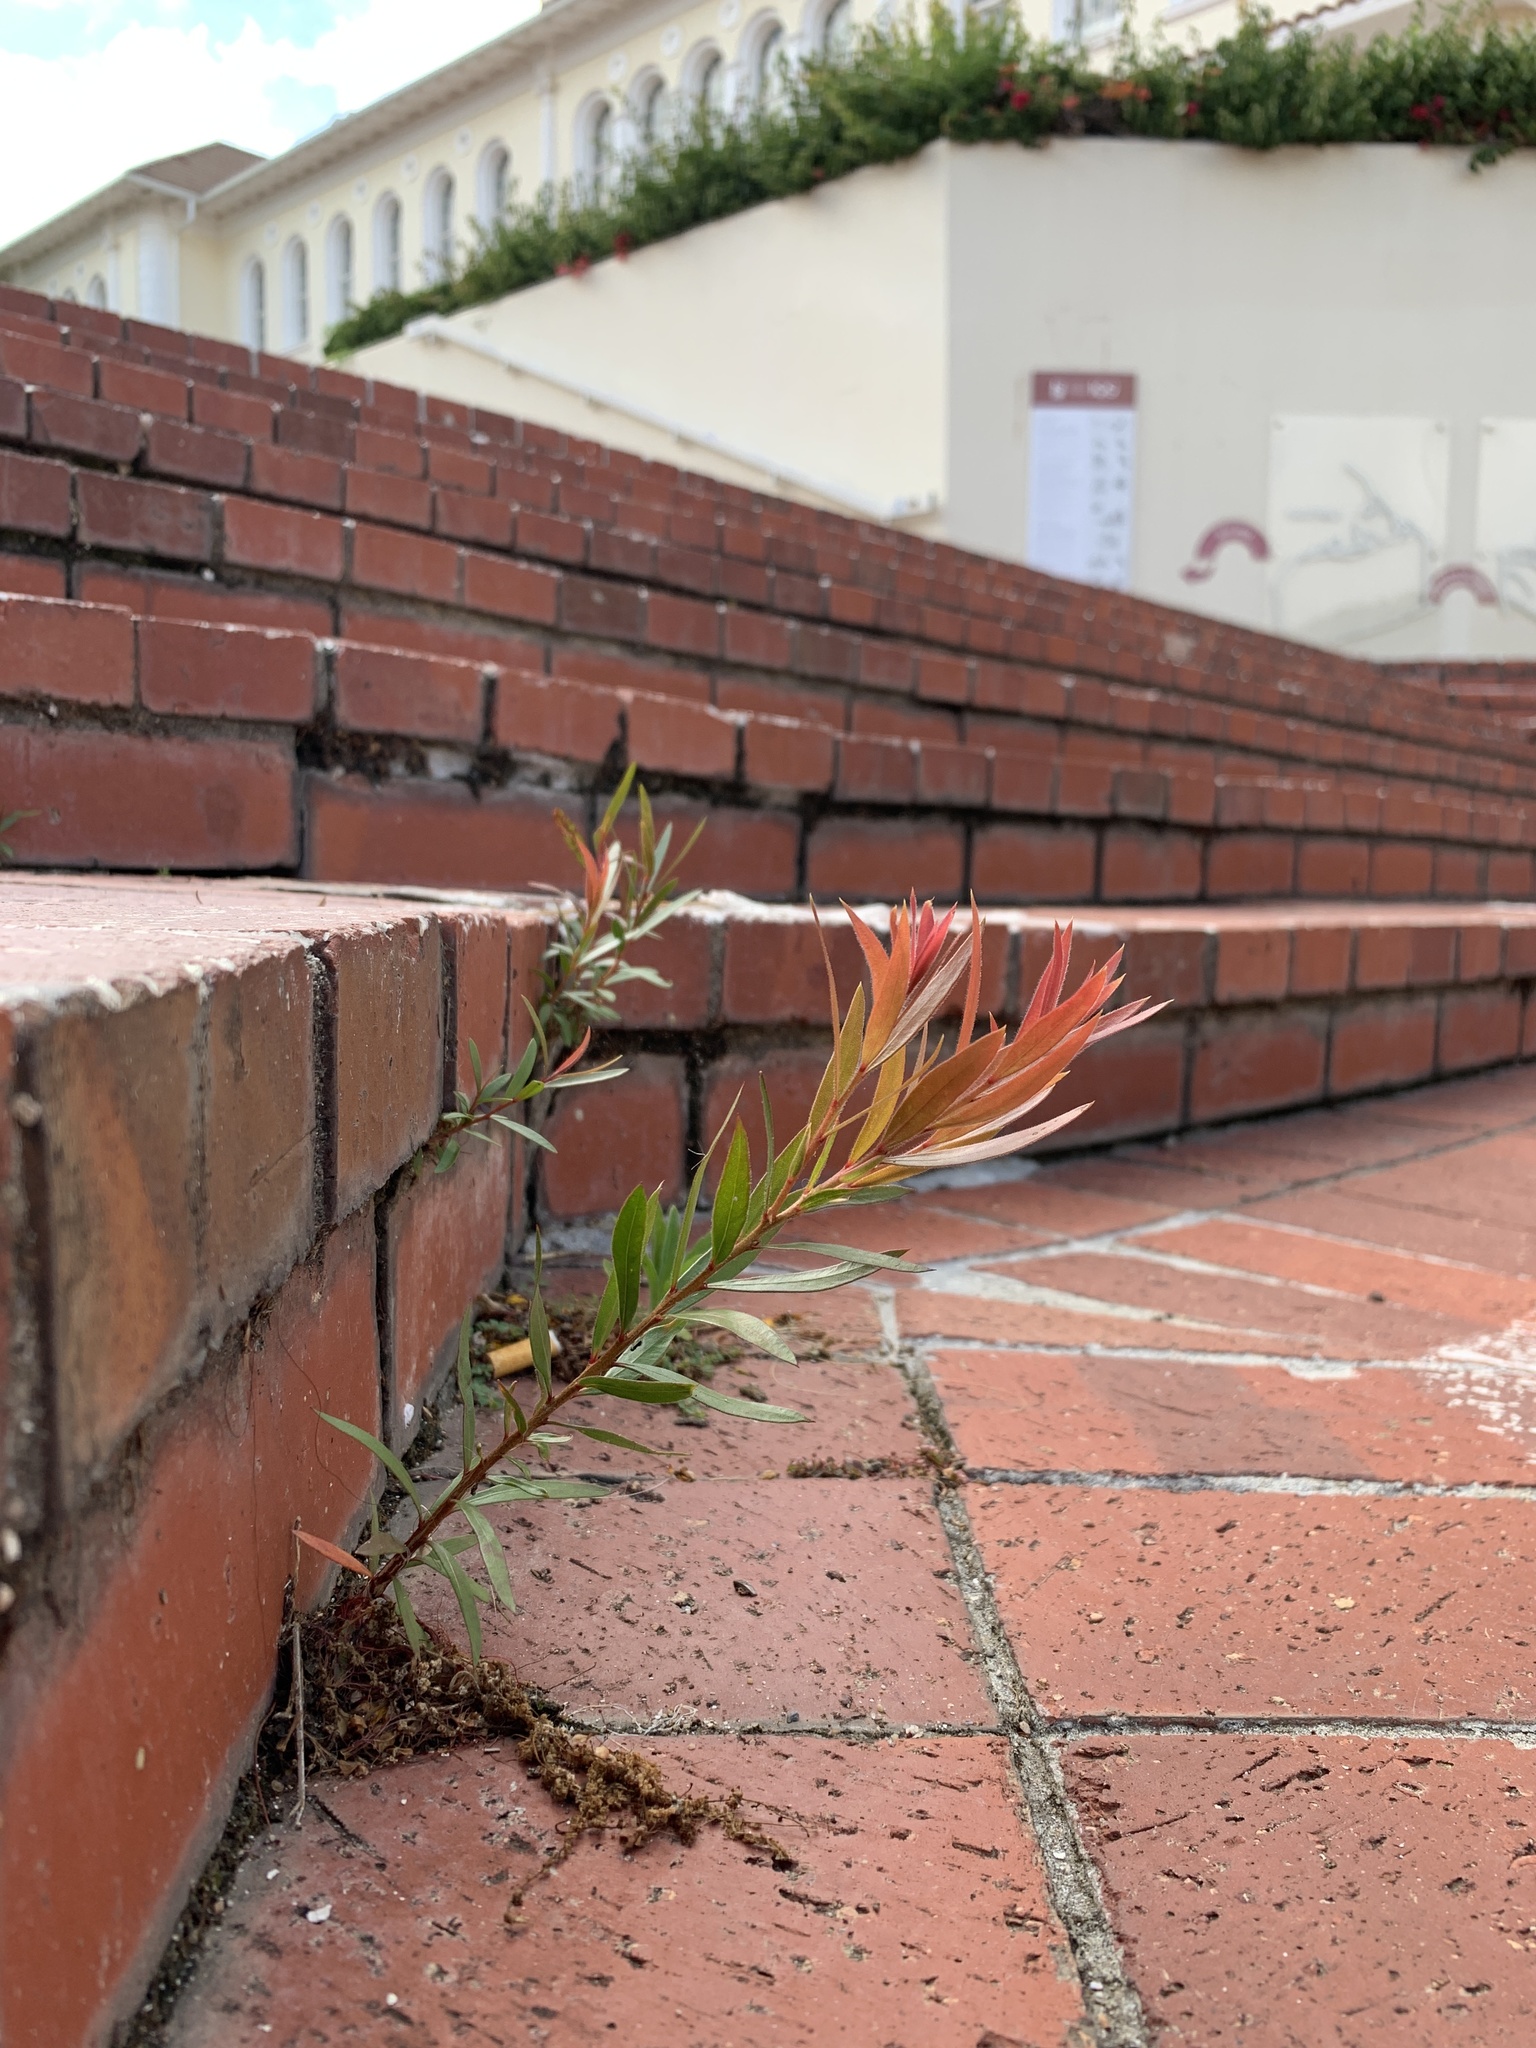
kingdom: Plantae
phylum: Tracheophyta
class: Magnoliopsida
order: Myrtales
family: Myrtaceae
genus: Callistemon
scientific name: Callistemon viminalis
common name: Drooping bottlebrush
